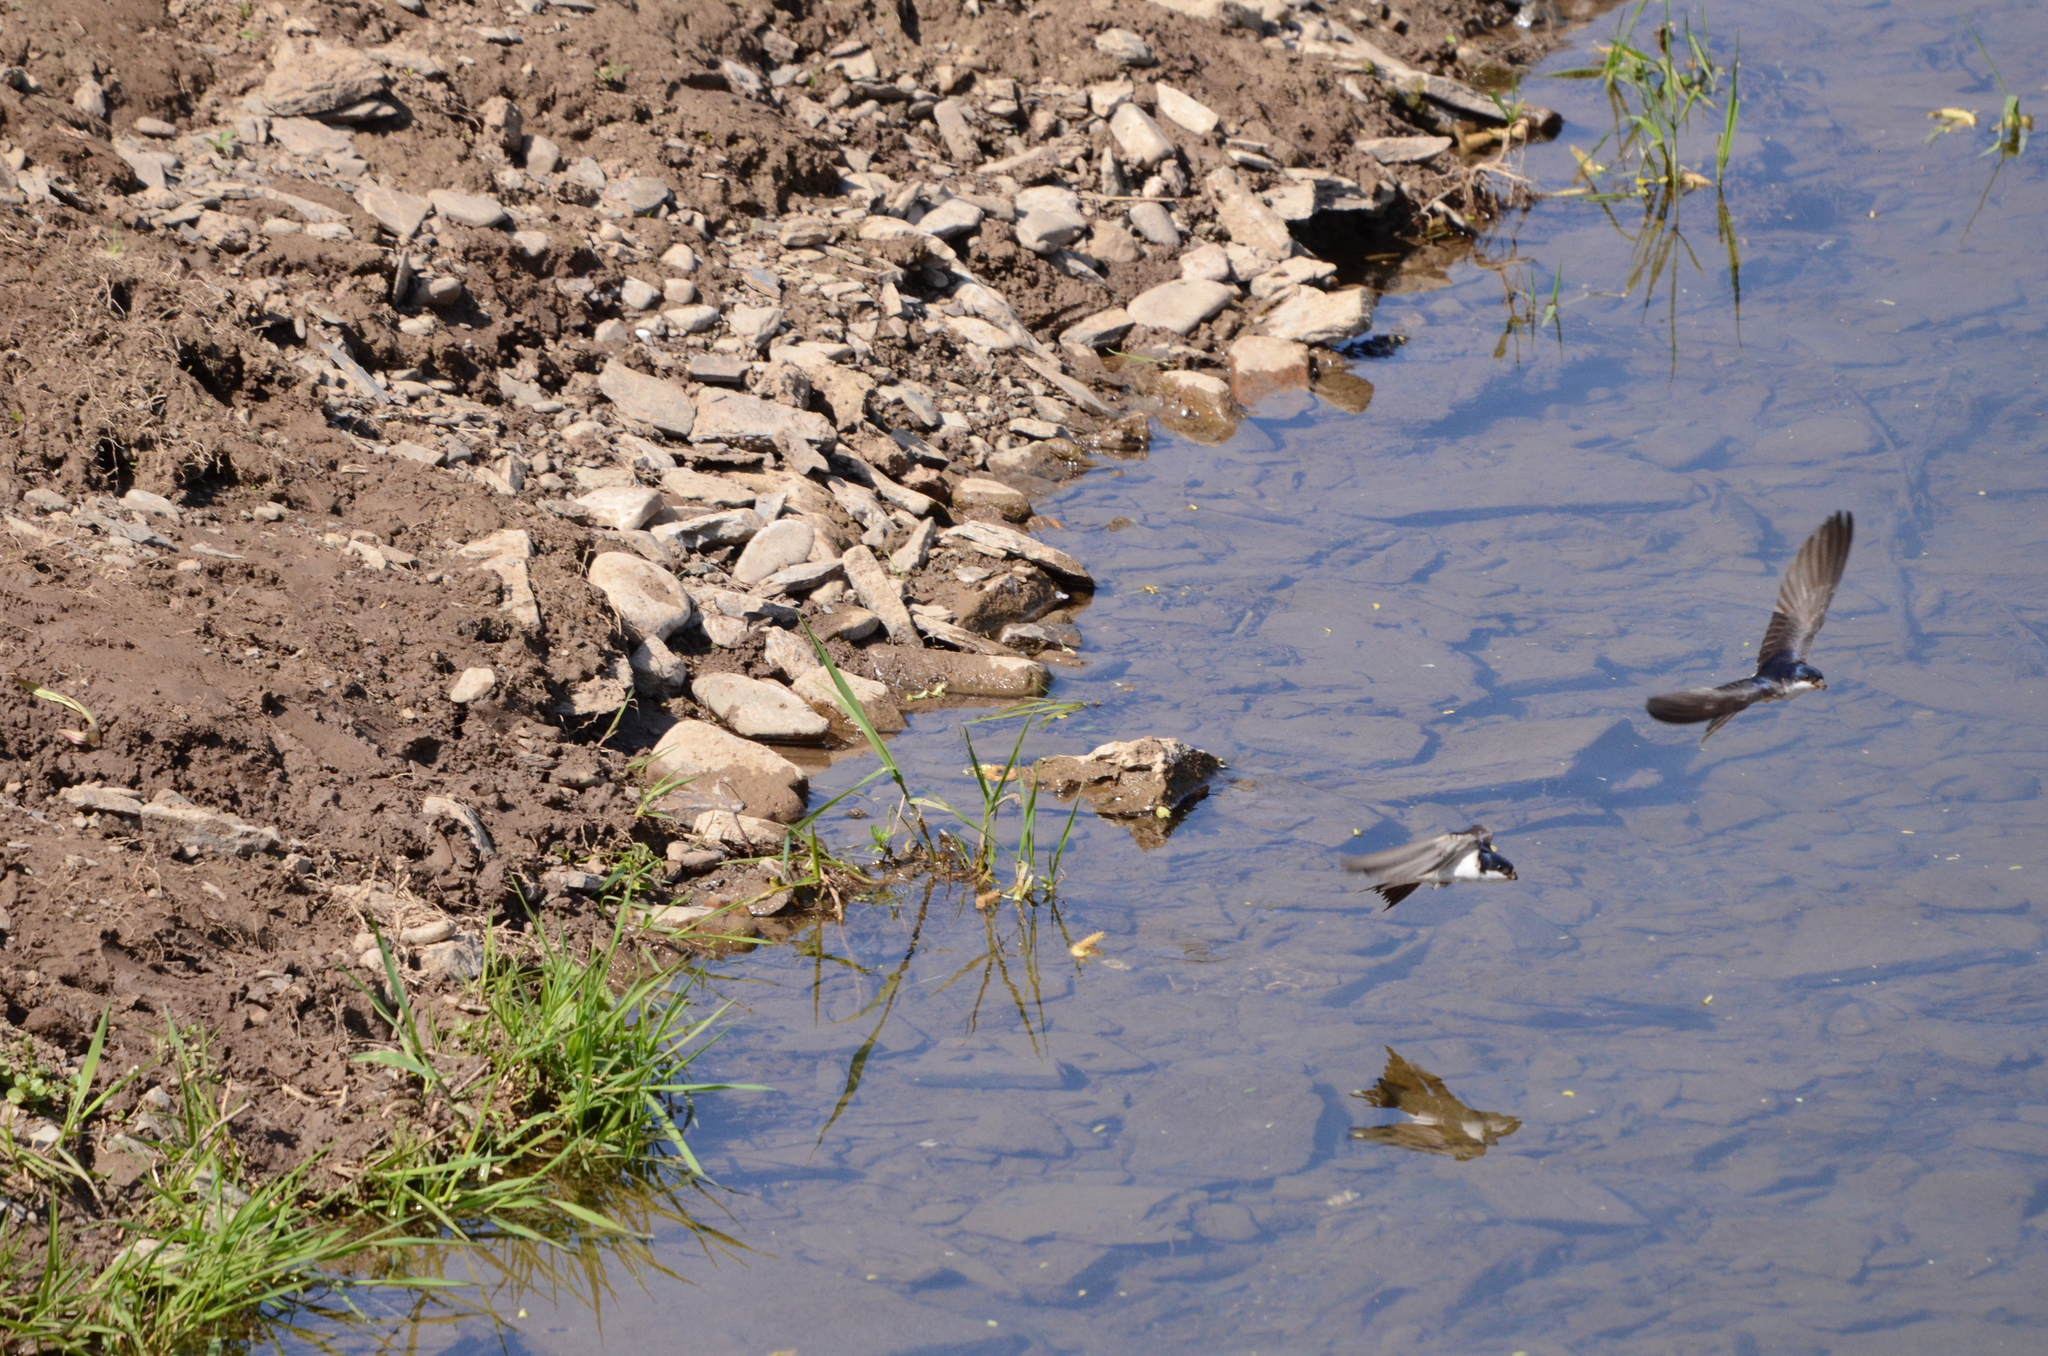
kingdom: Animalia
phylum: Chordata
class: Aves
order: Passeriformes
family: Hirundinidae
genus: Delichon
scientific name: Delichon urbicum
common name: Common house martin
